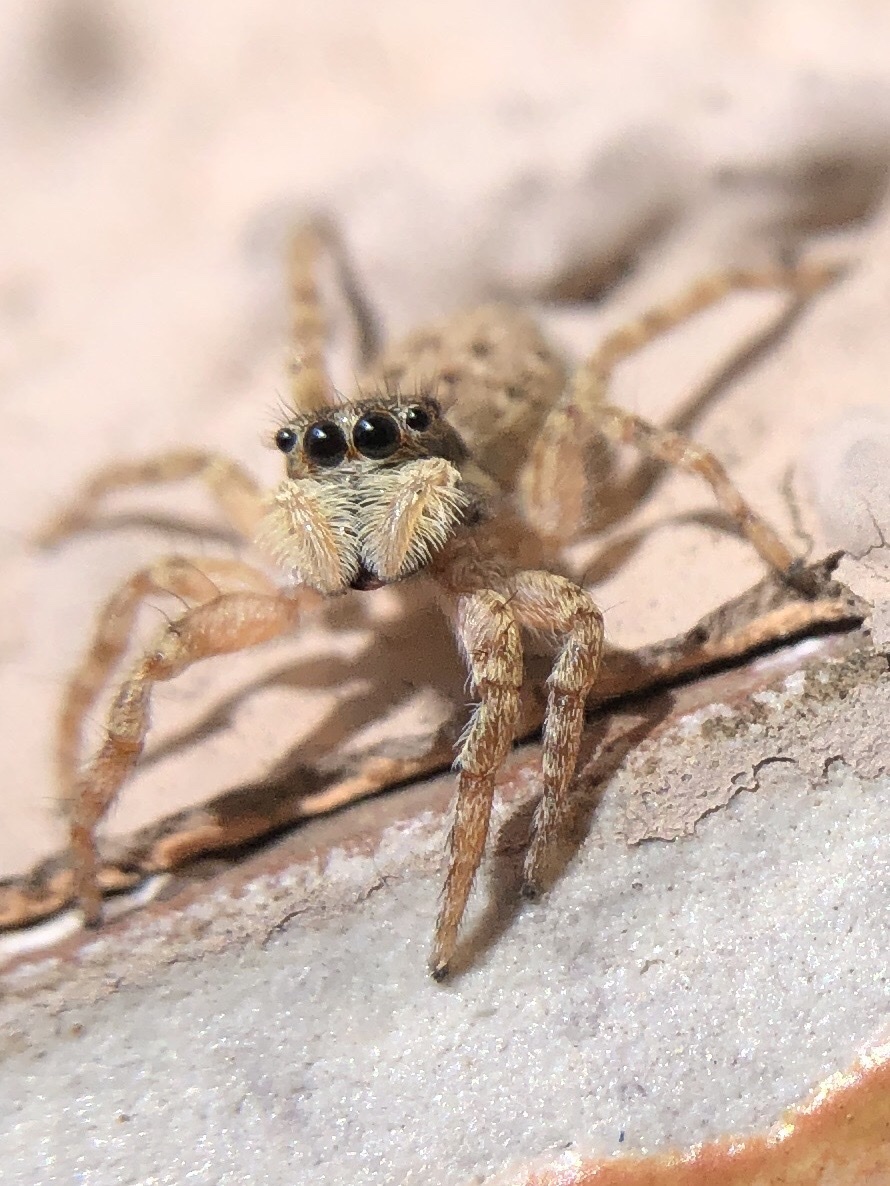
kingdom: Animalia
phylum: Arthropoda
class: Arachnida
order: Araneae
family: Salticidae
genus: Menemerus
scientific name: Menemerus semilimbatus
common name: Jumping spider
